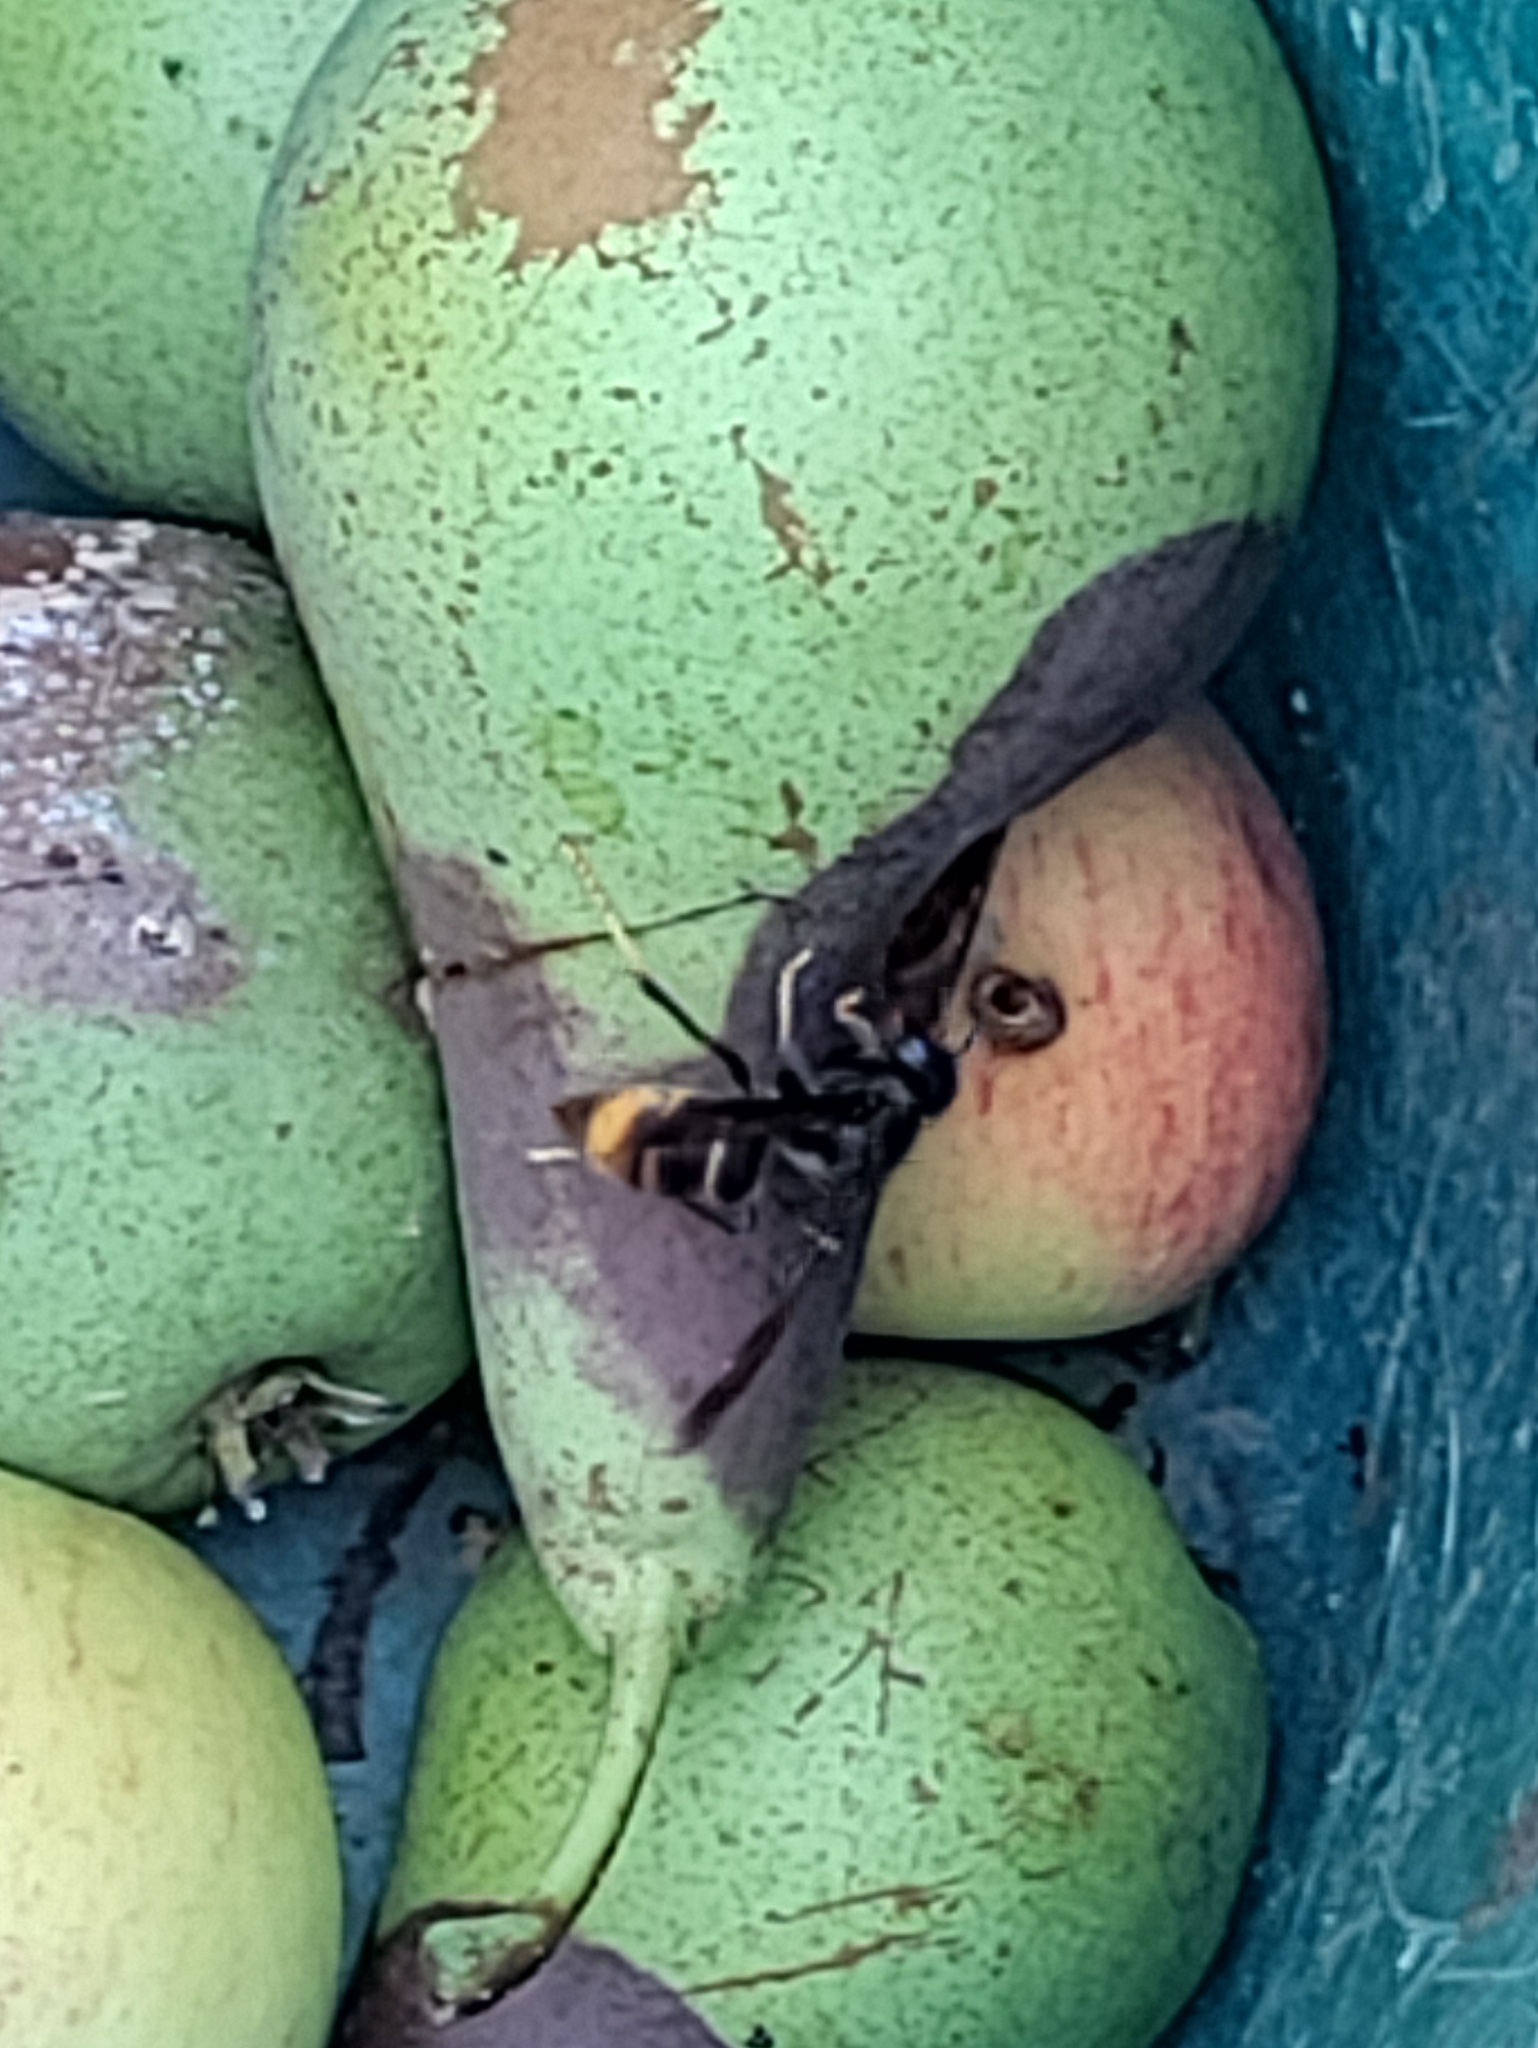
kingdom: Animalia
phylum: Arthropoda
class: Insecta
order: Hymenoptera
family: Vespidae
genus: Vespa
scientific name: Vespa velutina
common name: Asian hornet
